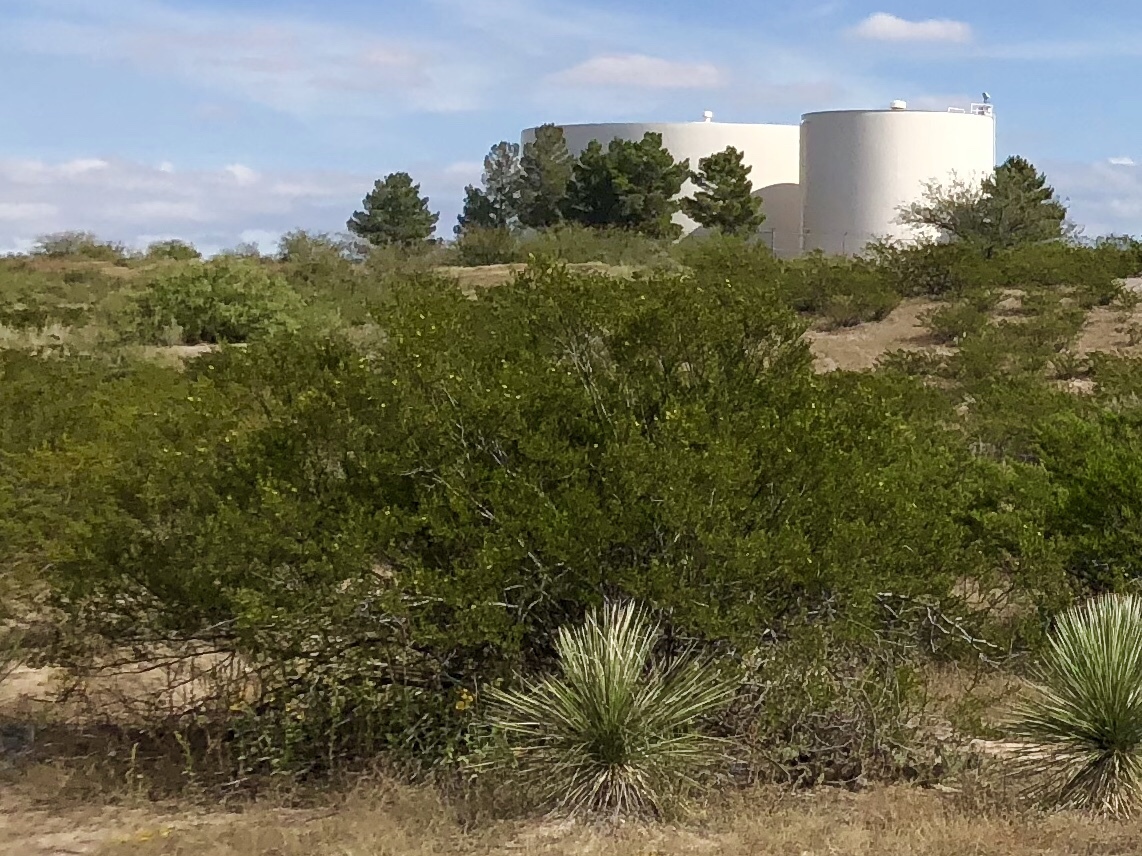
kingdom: Plantae
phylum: Tracheophyta
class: Magnoliopsida
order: Zygophyllales
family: Zygophyllaceae
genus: Larrea
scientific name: Larrea tridentata
